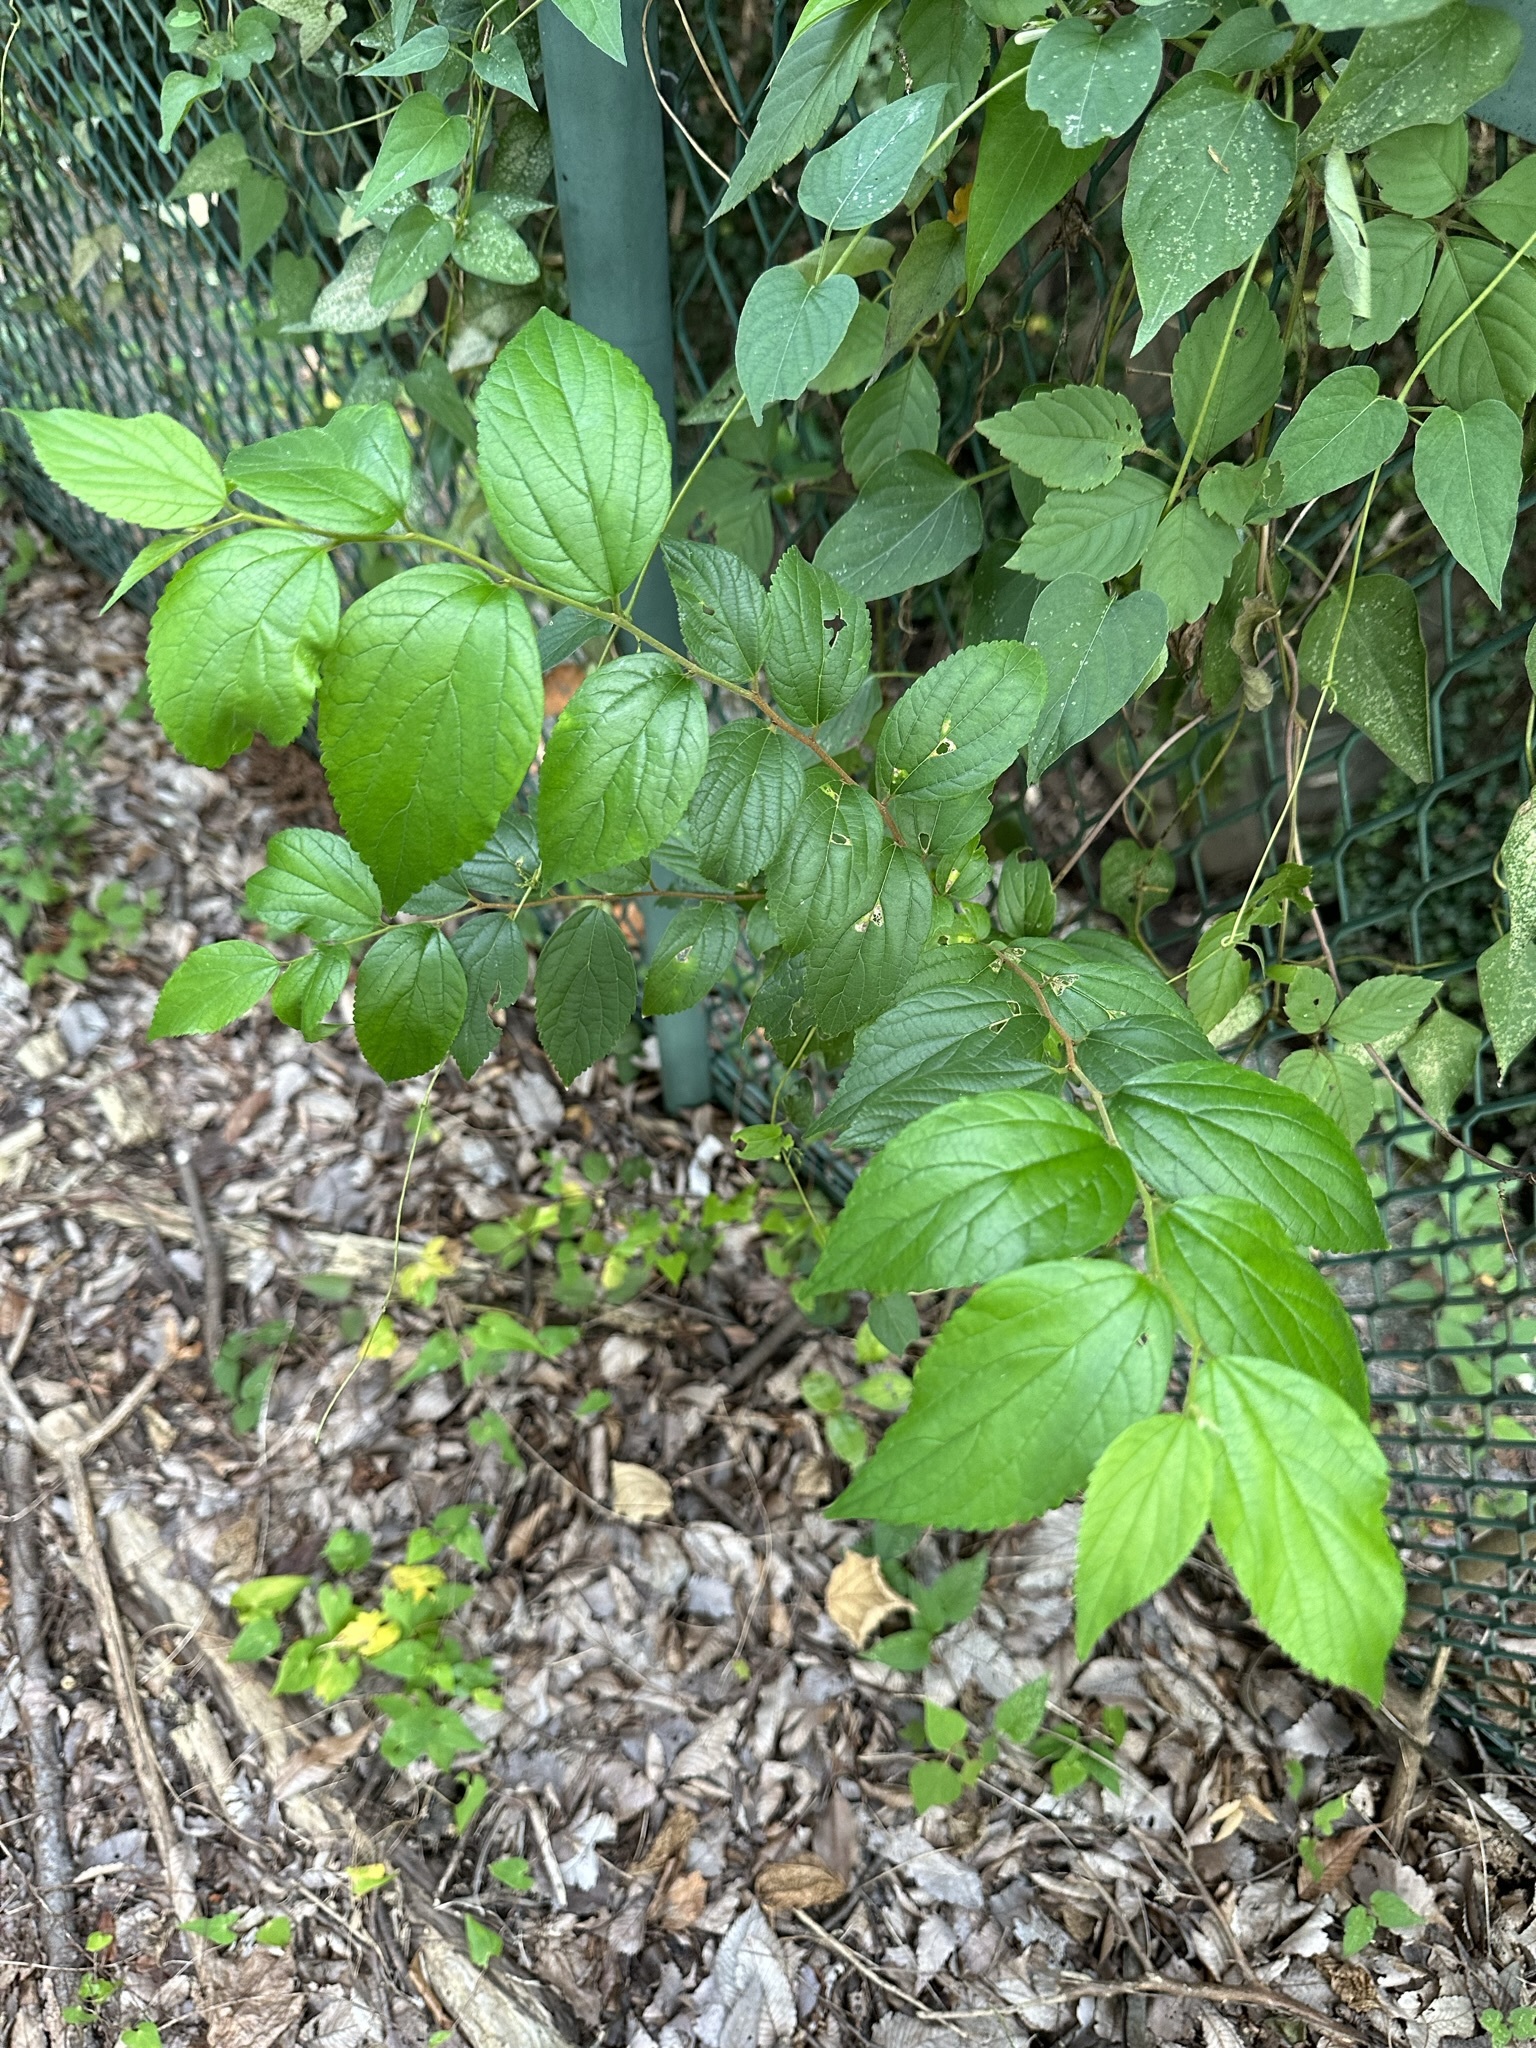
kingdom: Plantae
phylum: Tracheophyta
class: Magnoliopsida
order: Rosales
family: Cannabaceae
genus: Celtis
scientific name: Celtis sinensis
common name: Chinese hackberry
